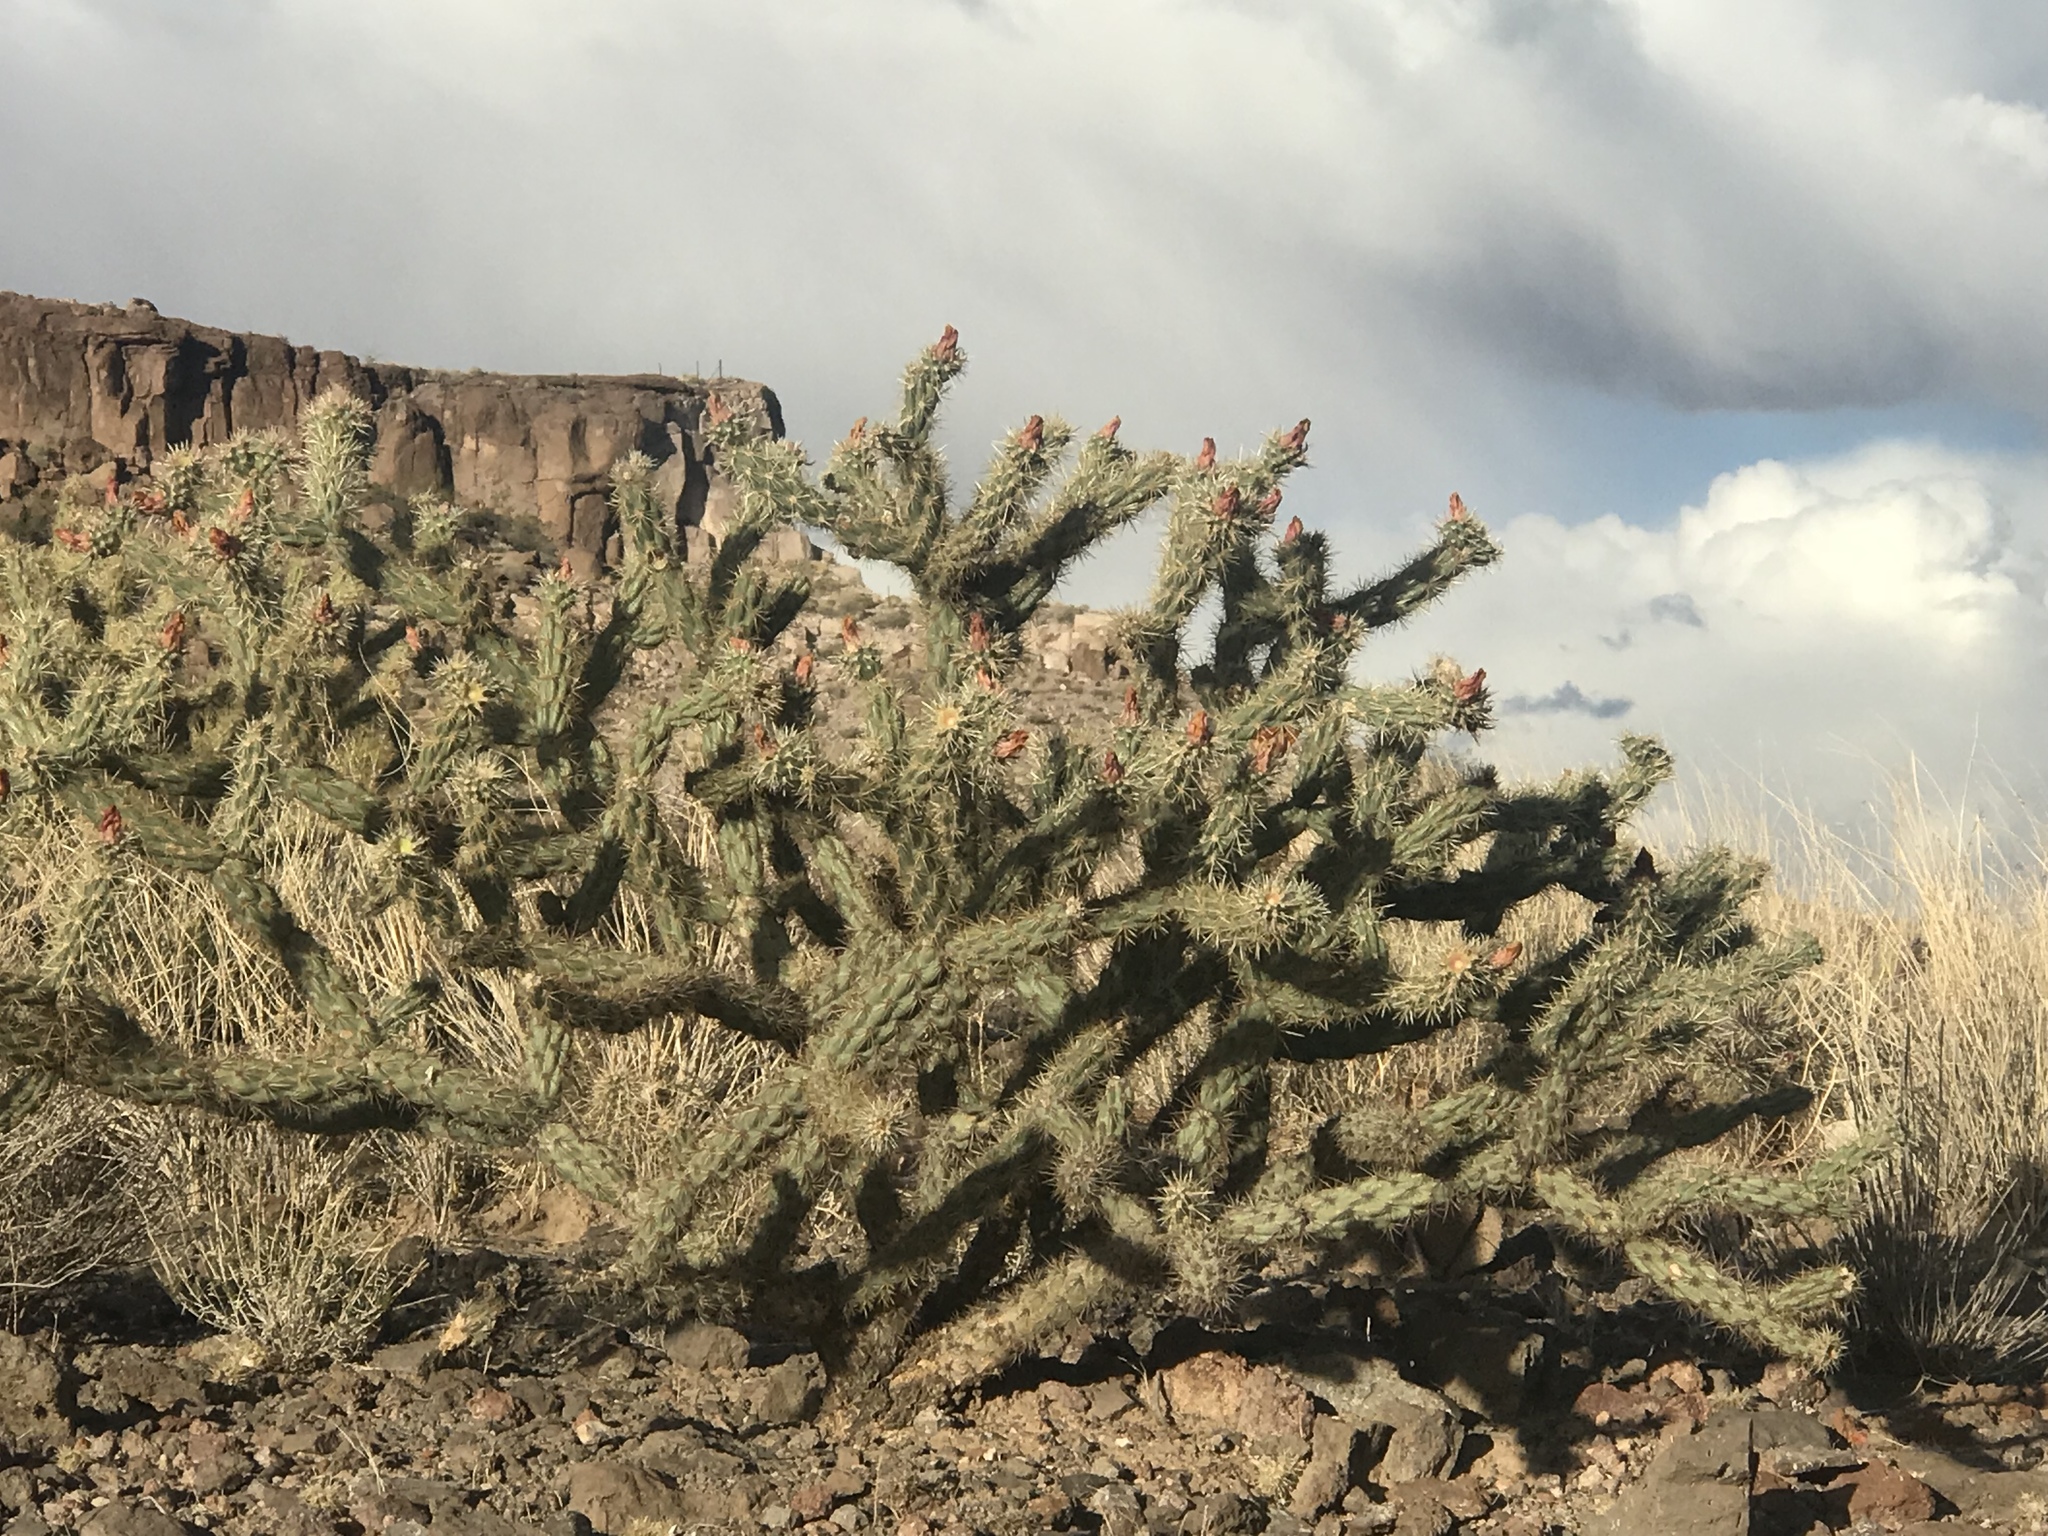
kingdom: Plantae
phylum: Tracheophyta
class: Magnoliopsida
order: Caryophyllales
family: Cactaceae
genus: Cylindropuntia
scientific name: Cylindropuntia acanthocarpa
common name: Buckhorn cholla
